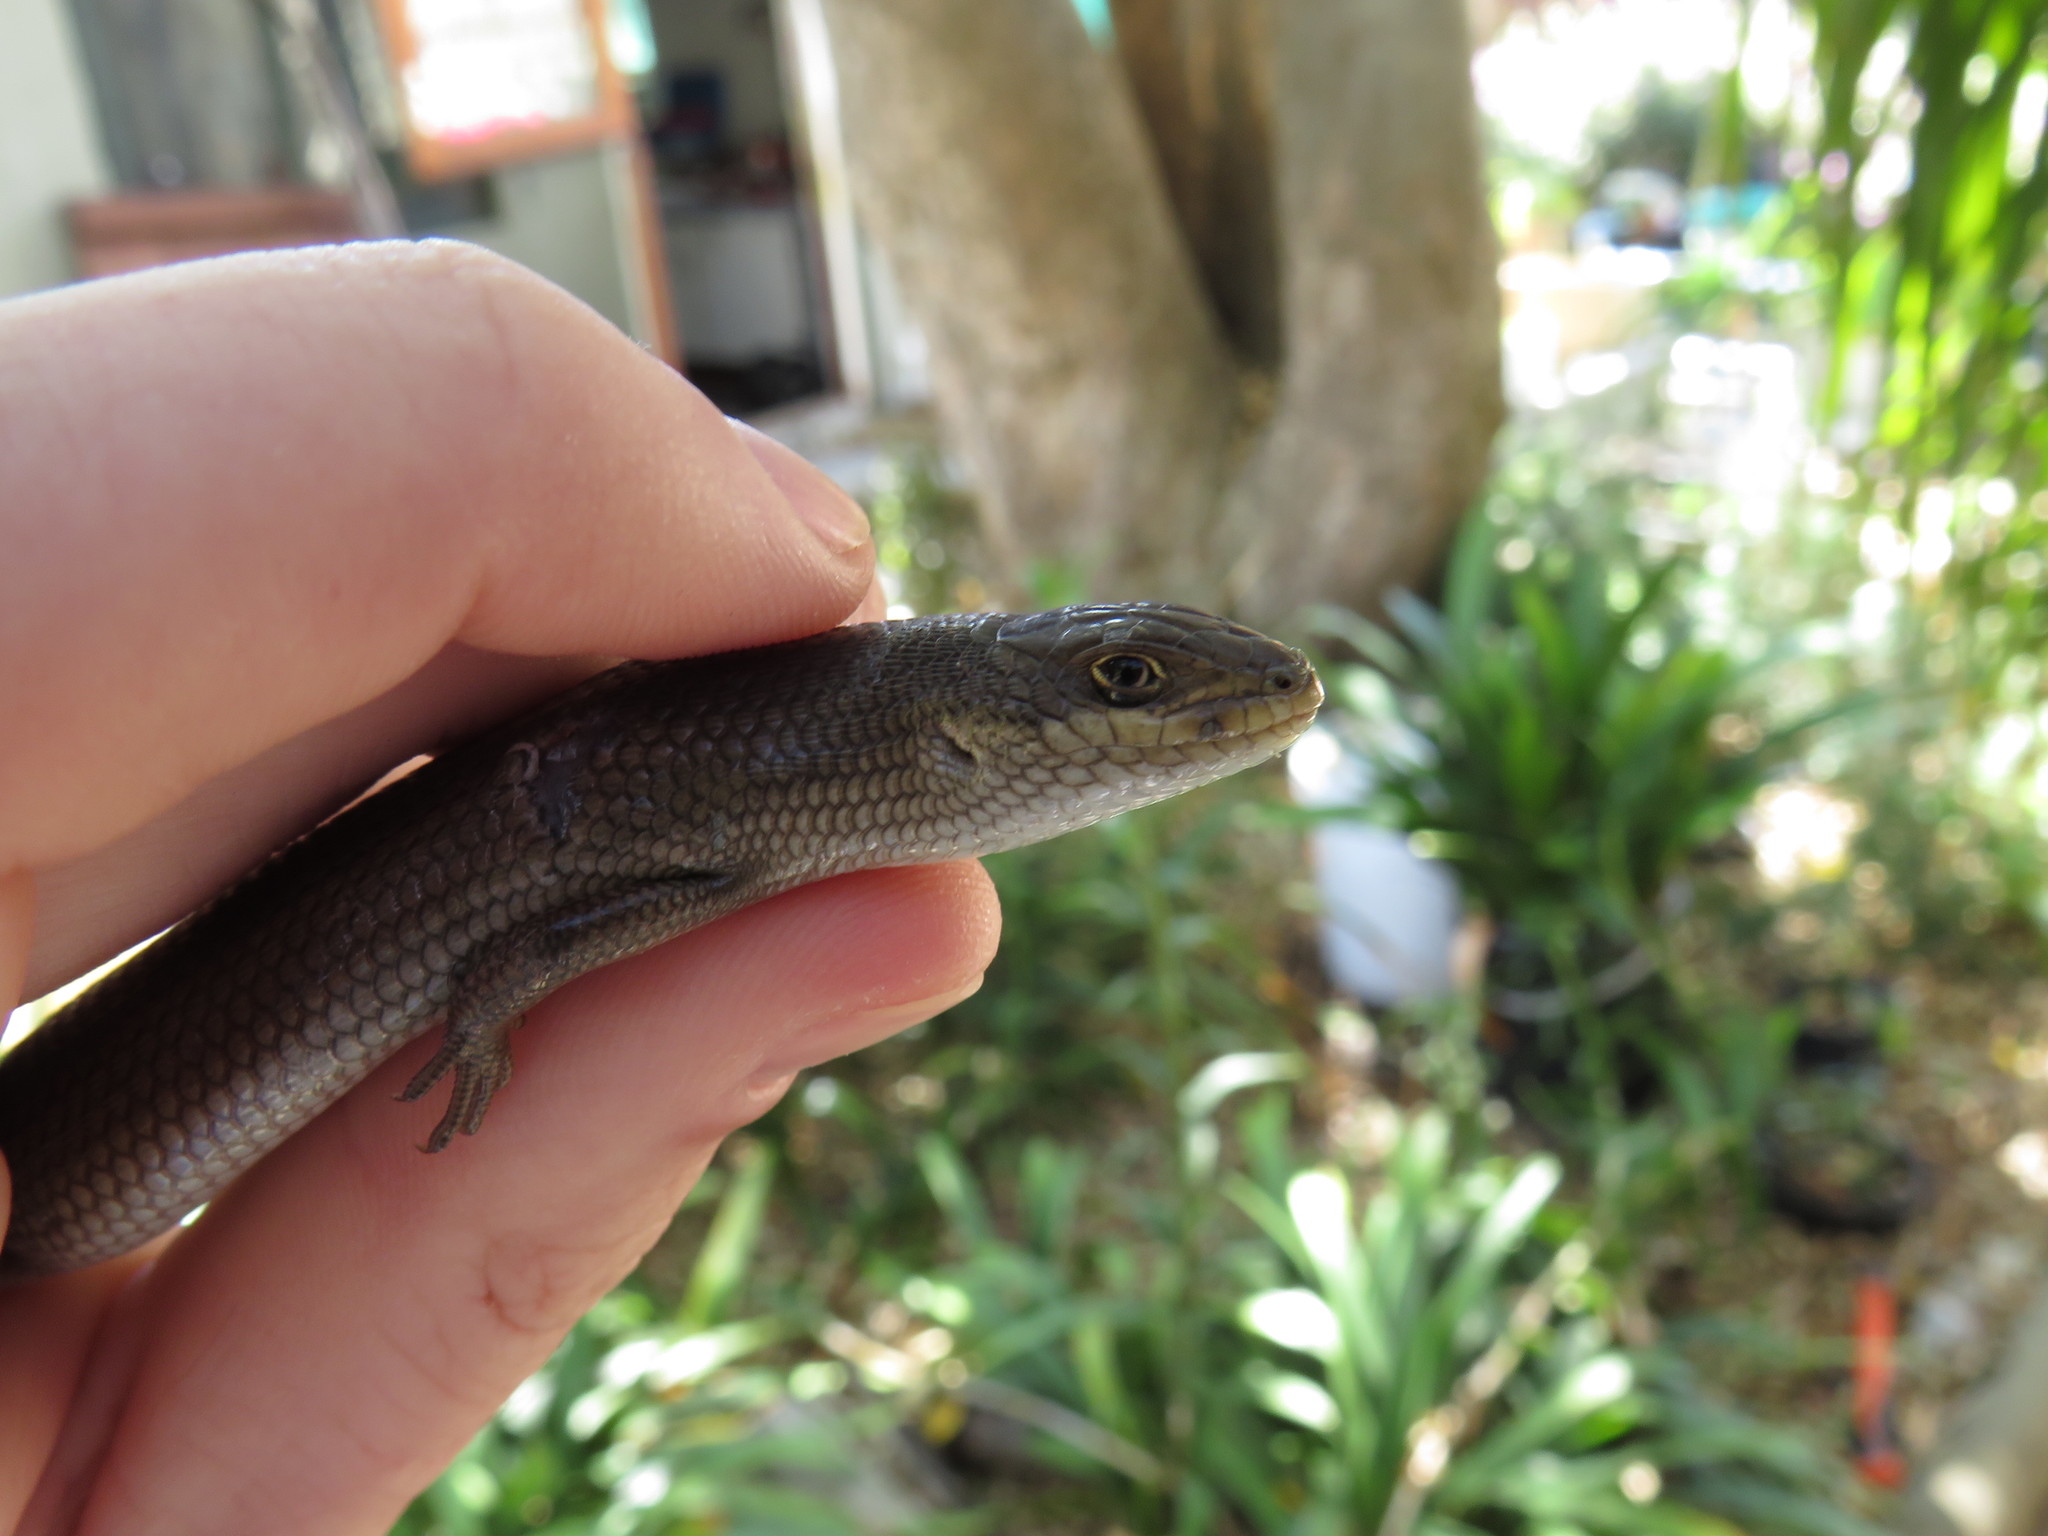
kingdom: Animalia
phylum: Chordata
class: Squamata
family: Scincidae
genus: Trachylepis
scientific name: Trachylepis capensis
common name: Cape skink
